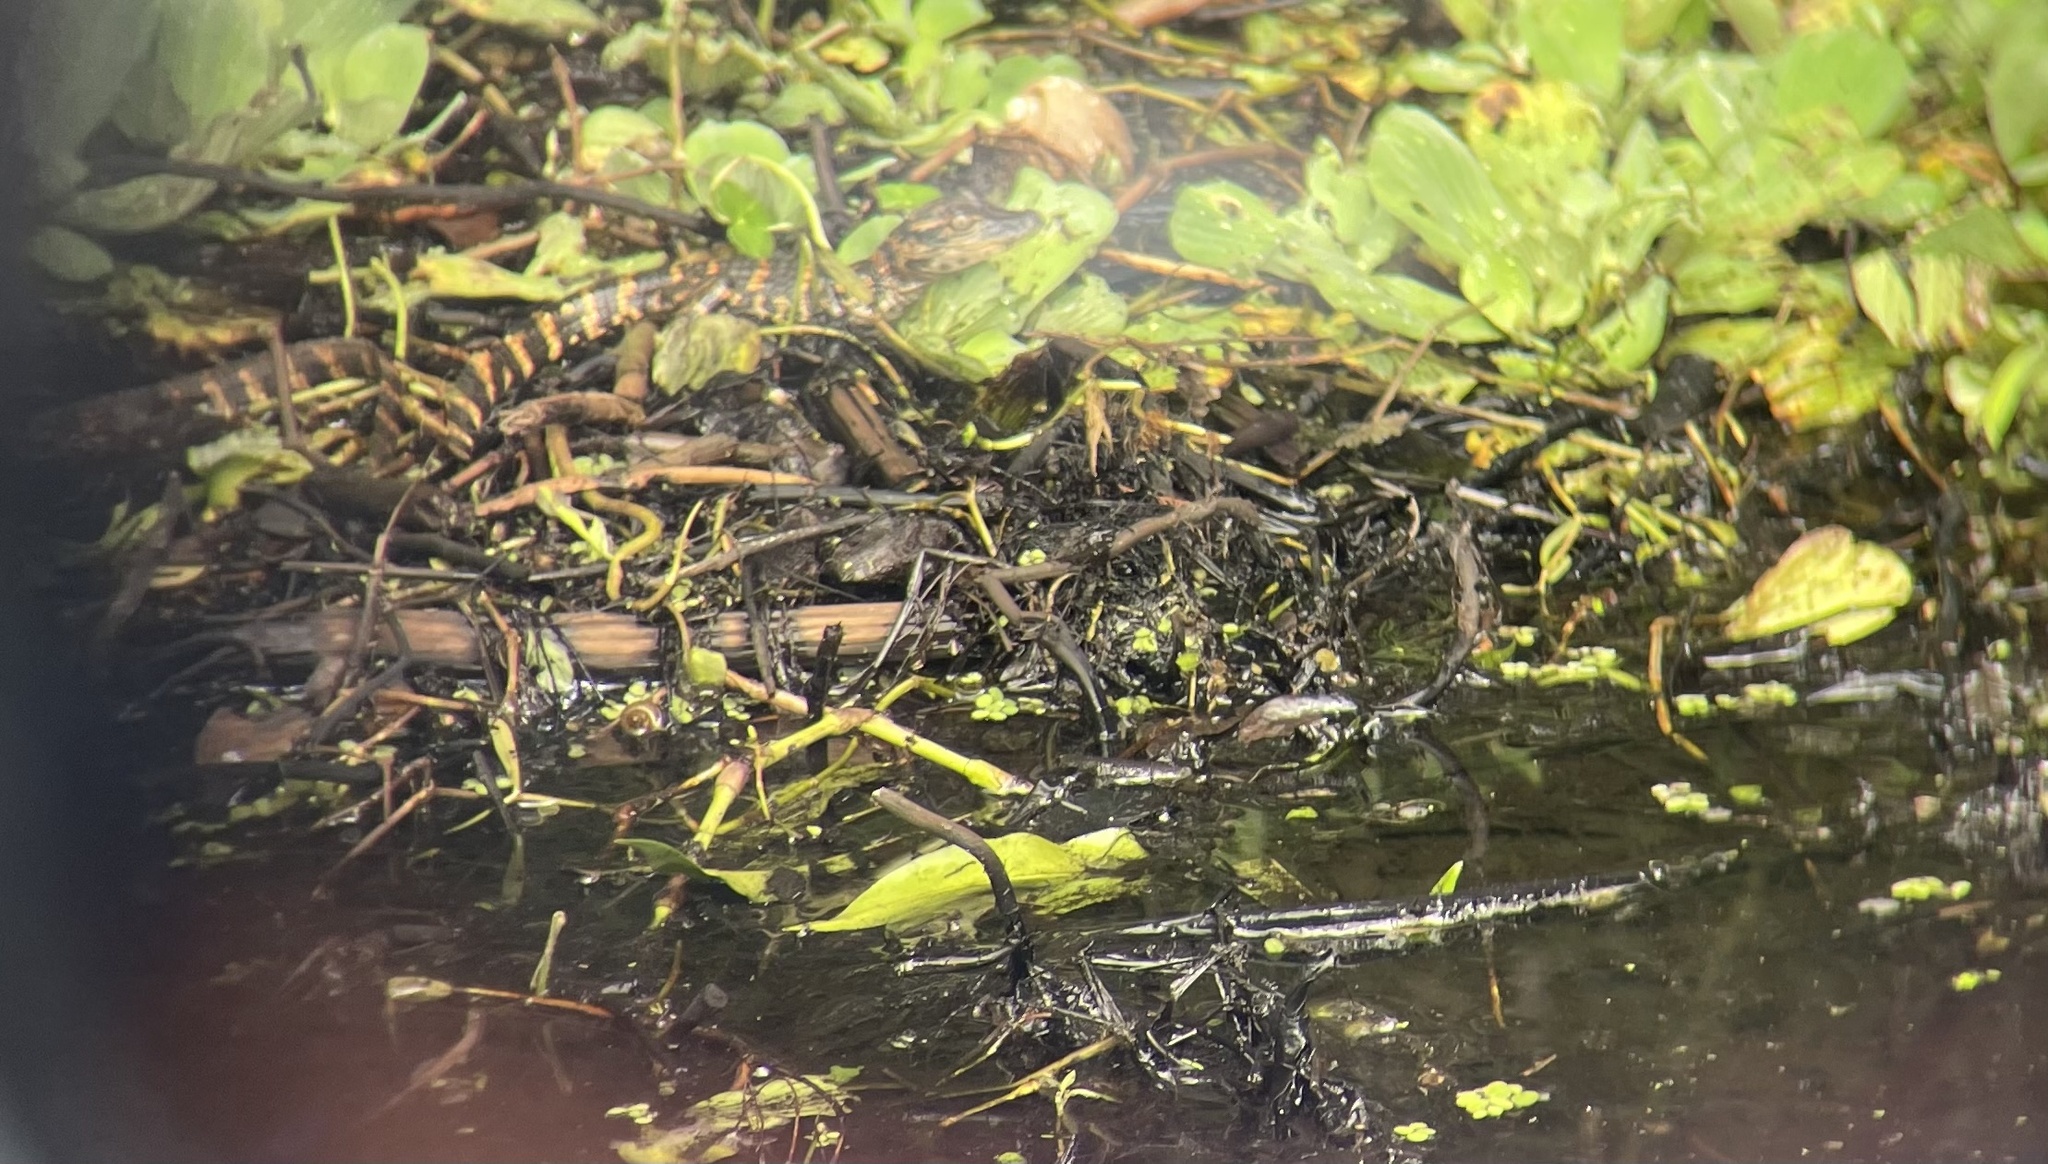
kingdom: Animalia
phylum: Chordata
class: Crocodylia
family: Alligatoridae
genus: Alligator
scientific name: Alligator mississippiensis
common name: American alligator
